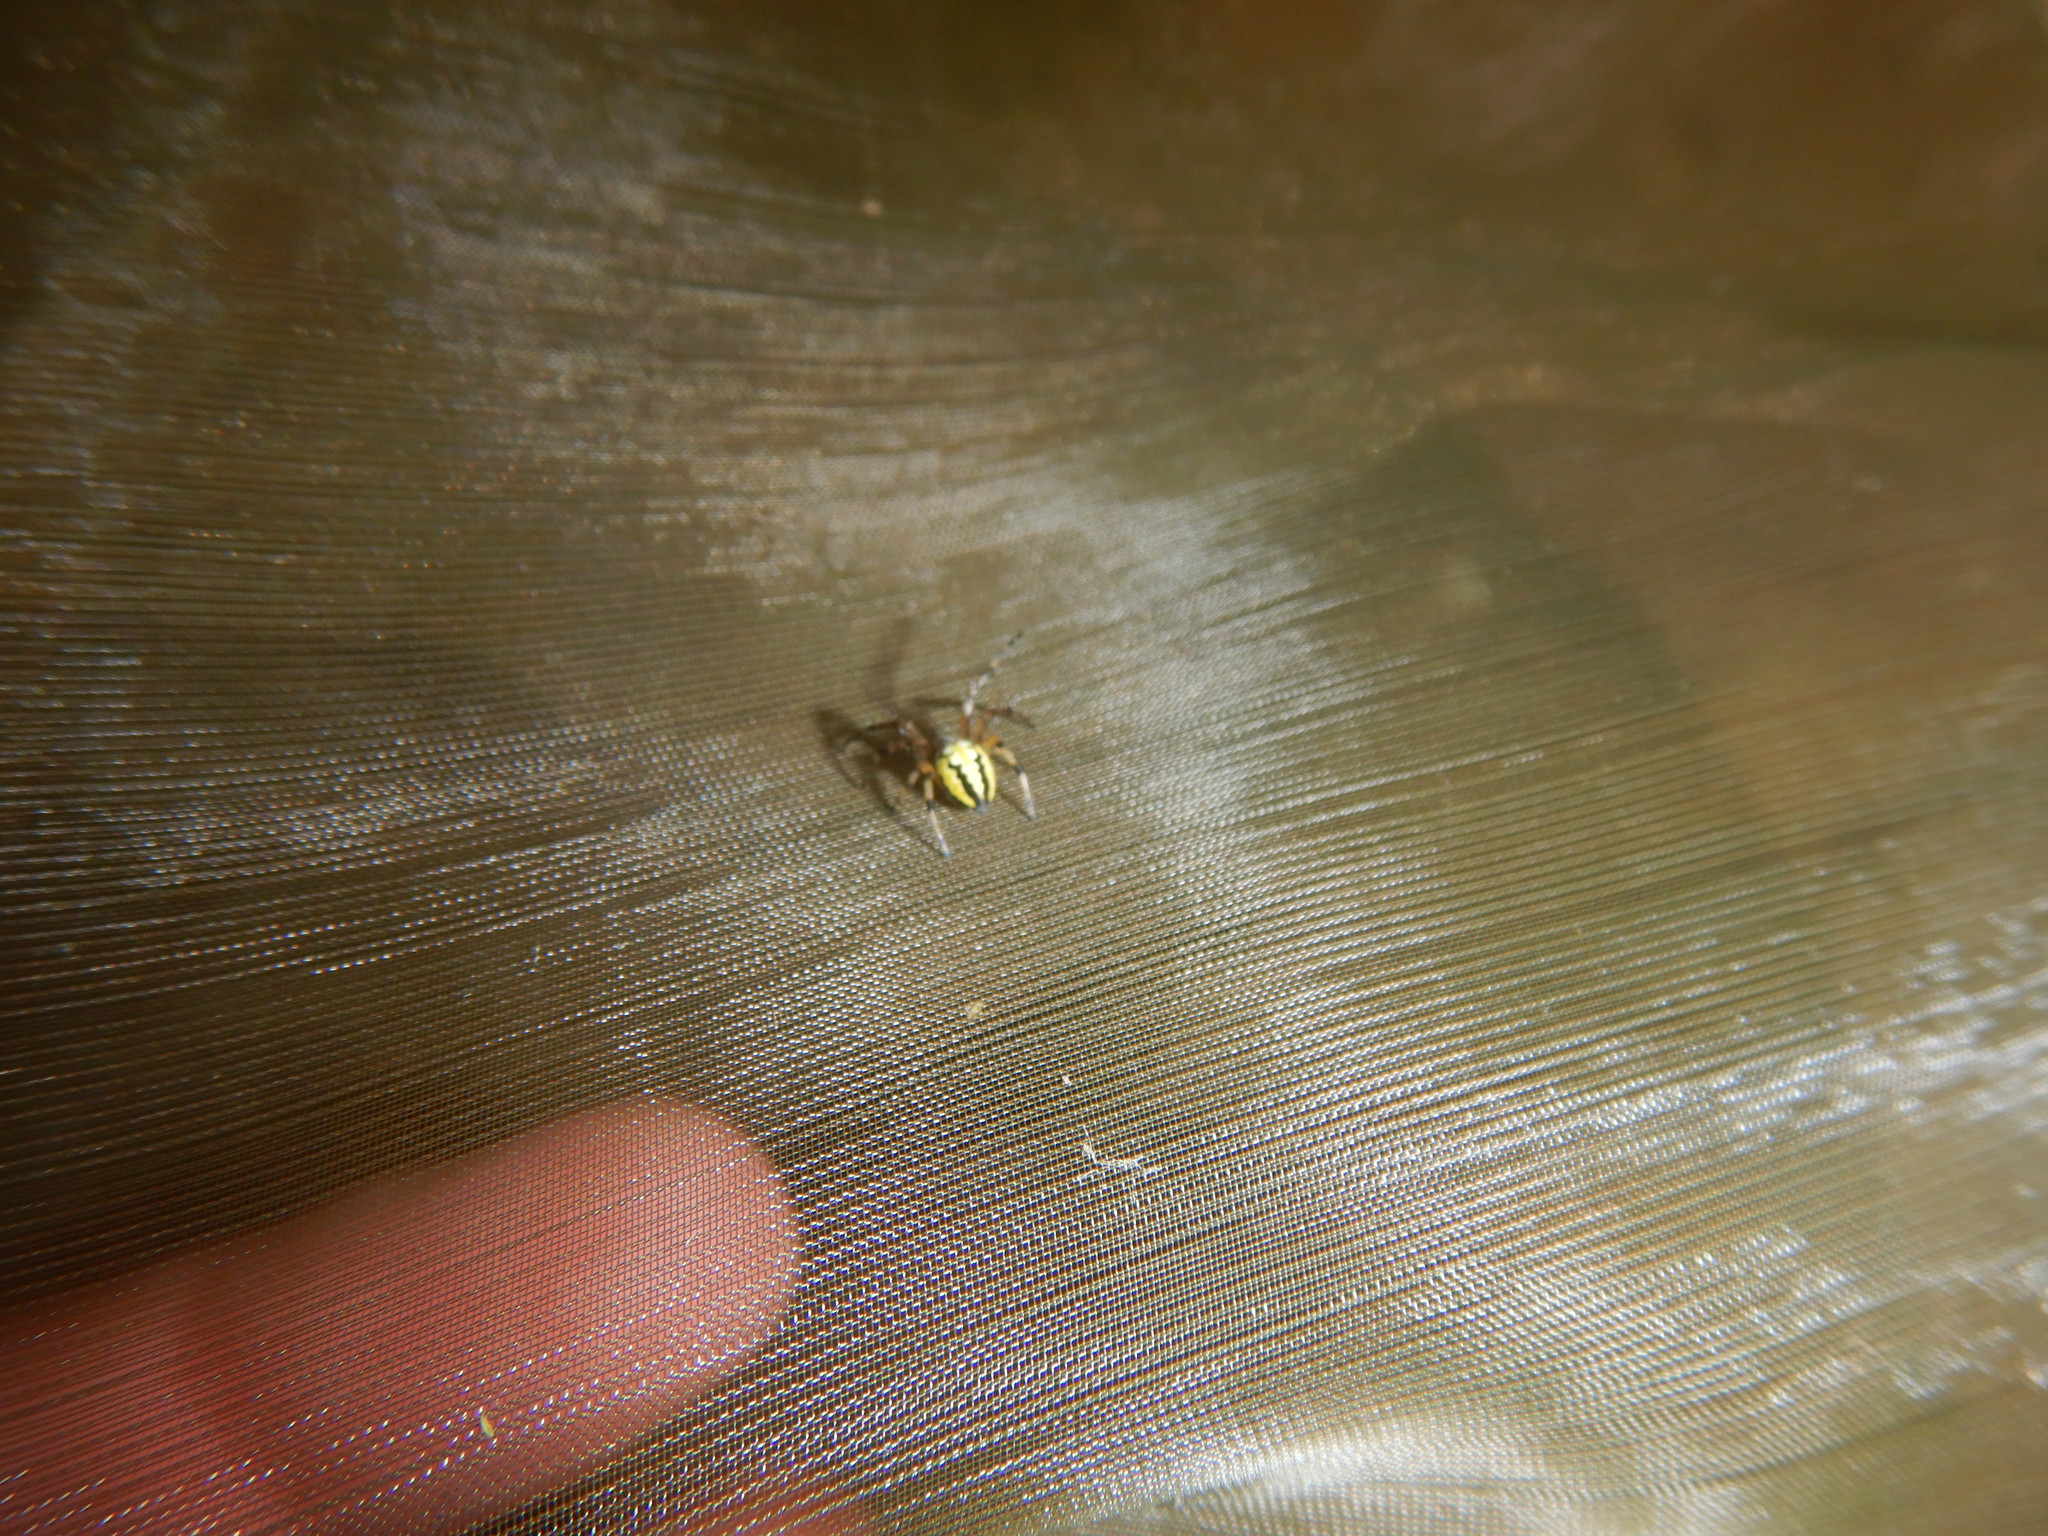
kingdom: Animalia
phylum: Arthropoda
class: Arachnida
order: Araneae
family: Araneidae
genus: Neoscona
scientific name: Neoscona adianta
